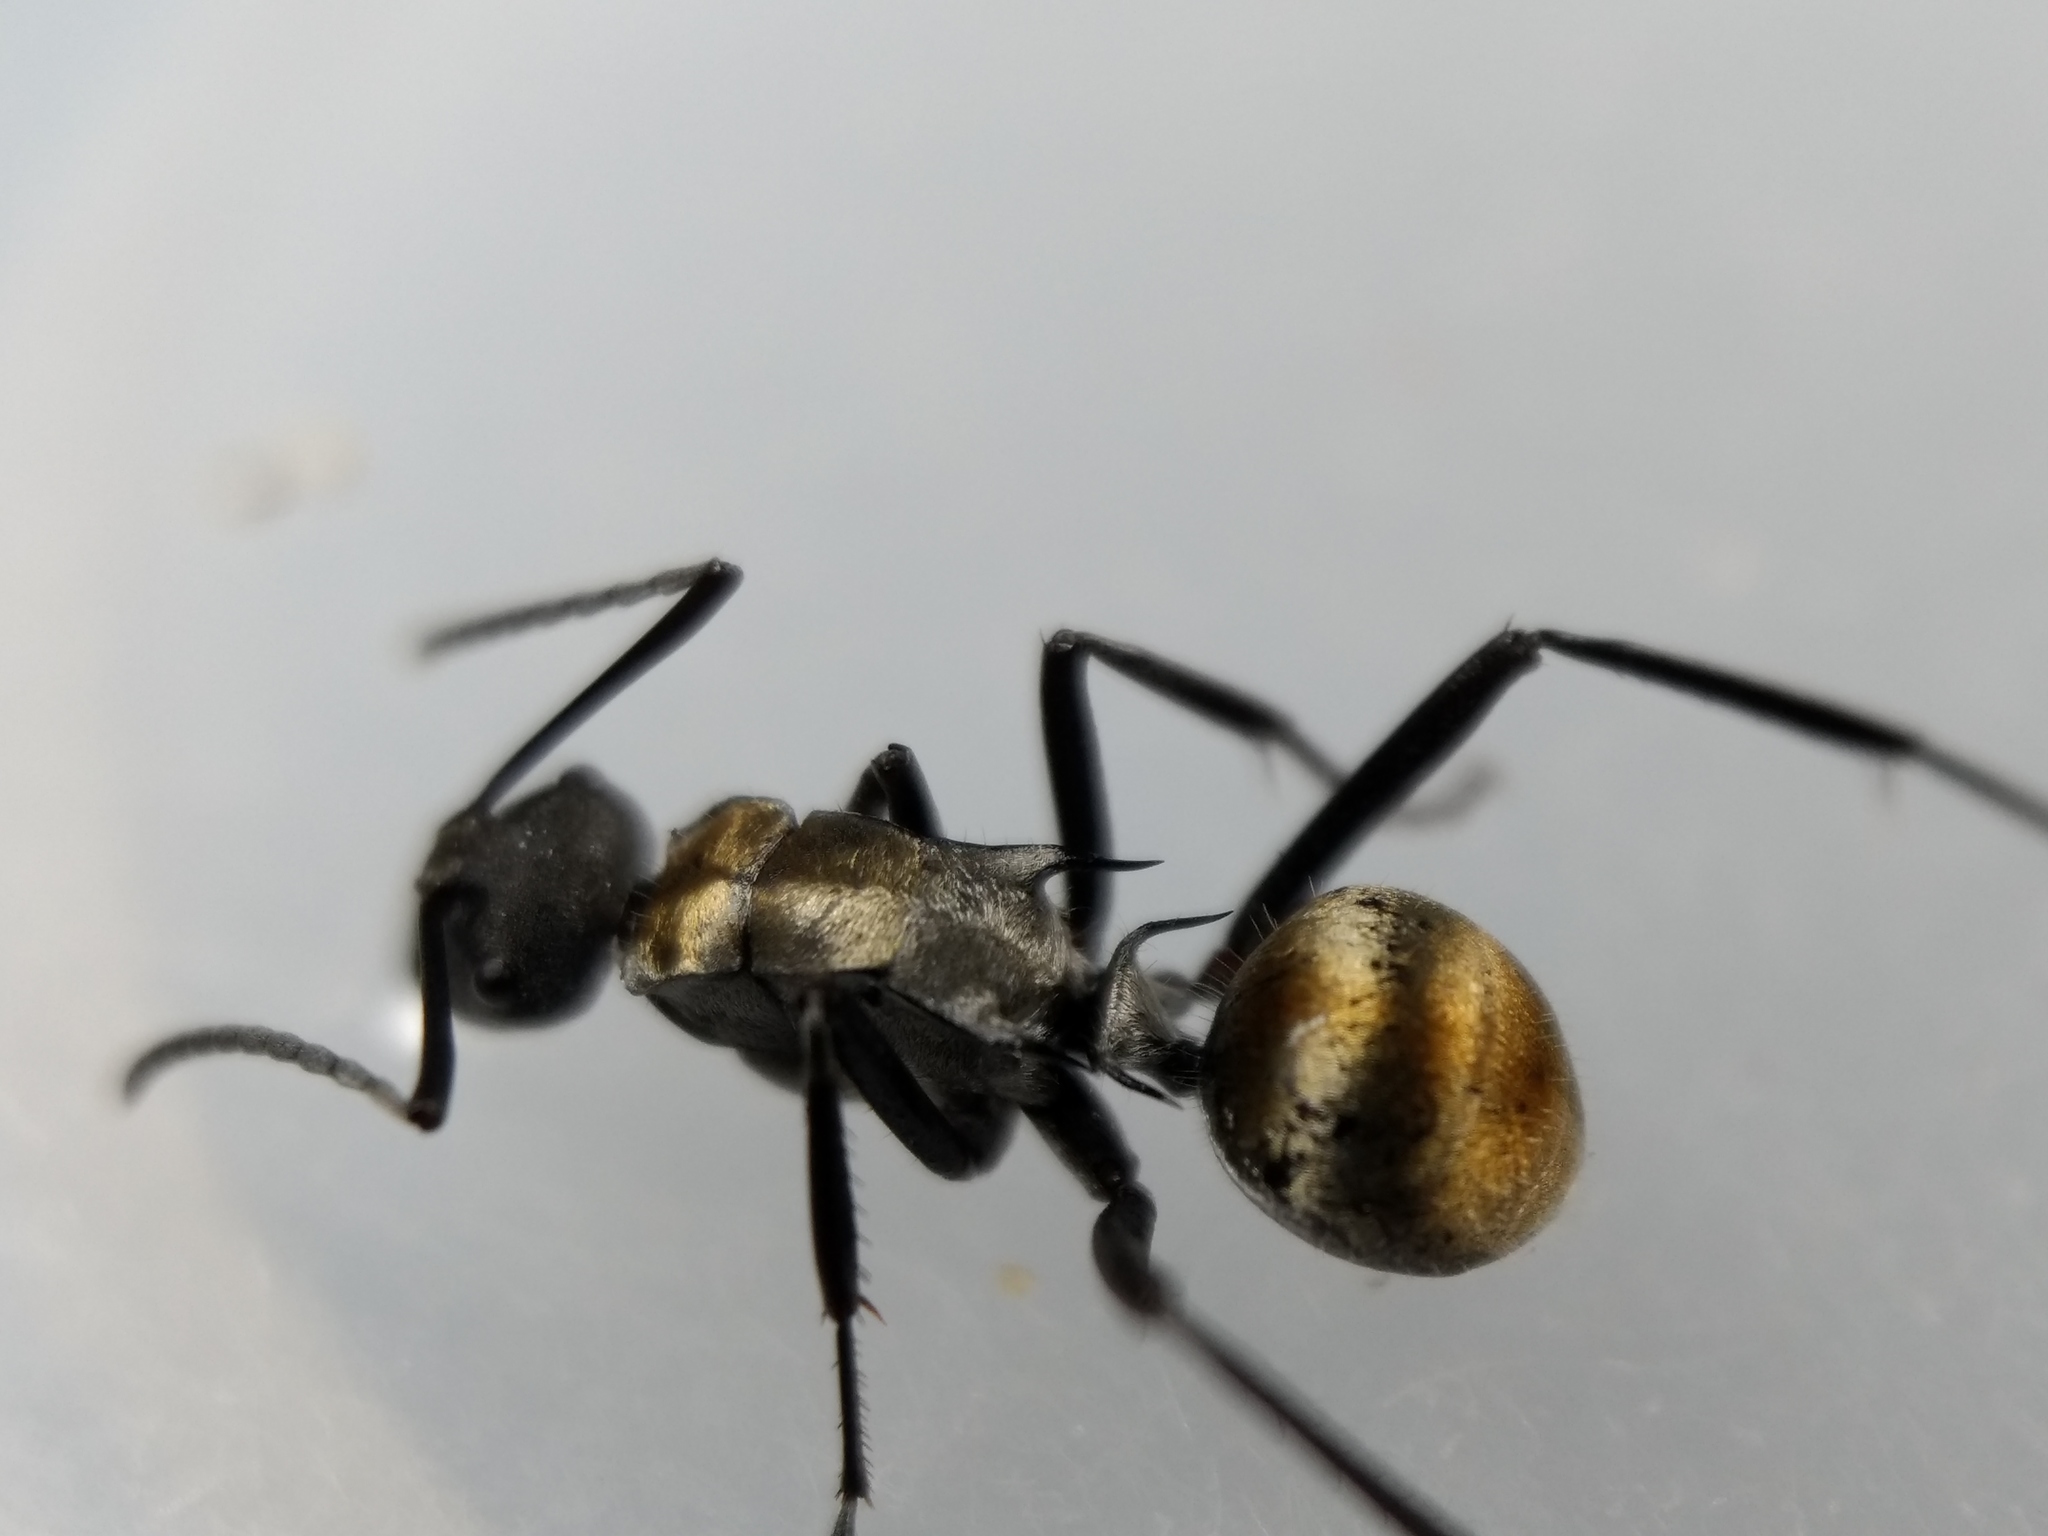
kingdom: Animalia
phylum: Arthropoda
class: Insecta
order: Hymenoptera
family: Formicidae
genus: Polyrhachis
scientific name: Polyrhachis ammon
